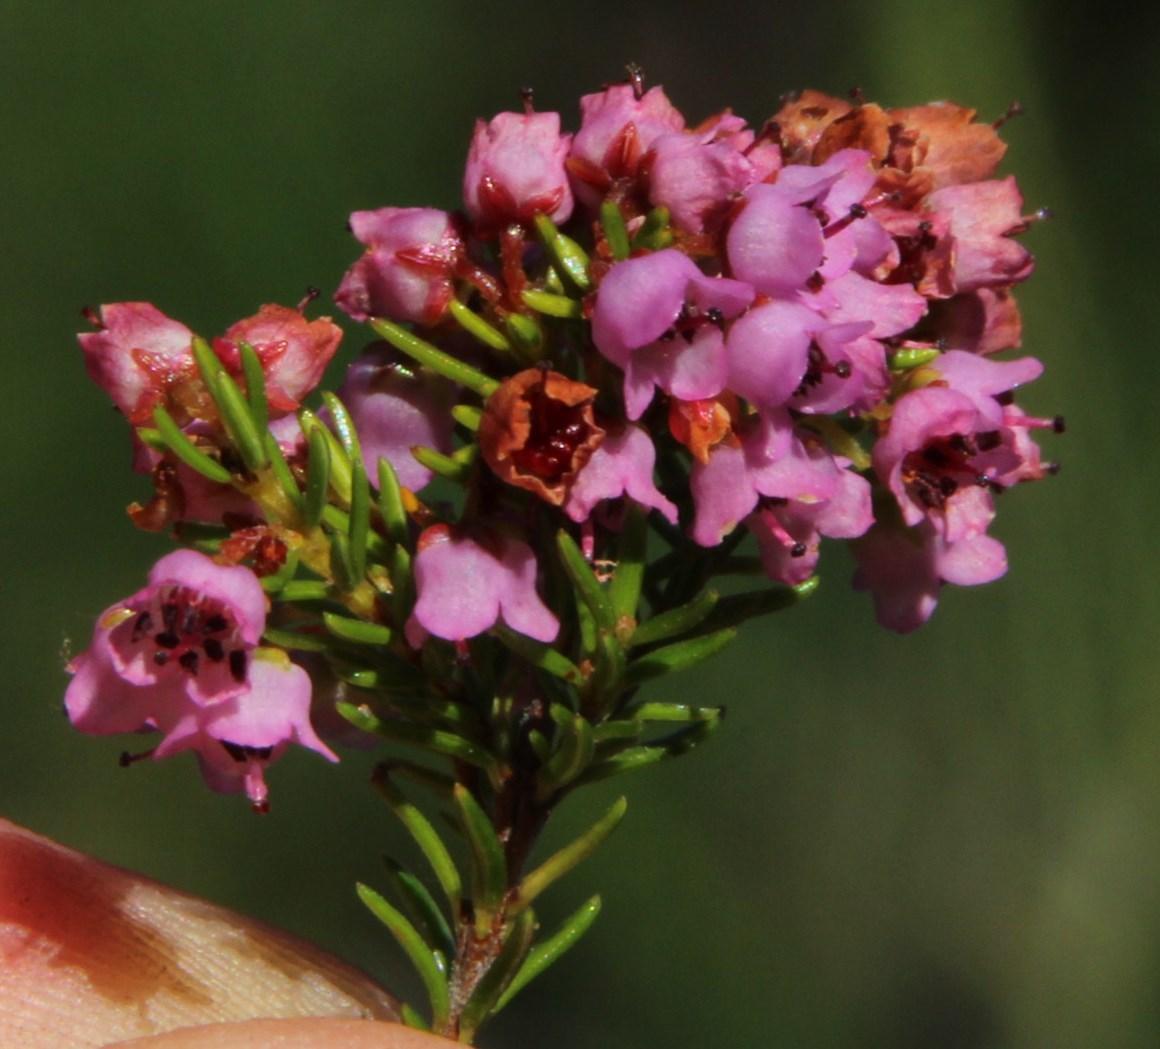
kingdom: Plantae
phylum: Tracheophyta
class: Magnoliopsida
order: Ericales
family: Ericaceae
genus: Erica
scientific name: Erica curvirostris
